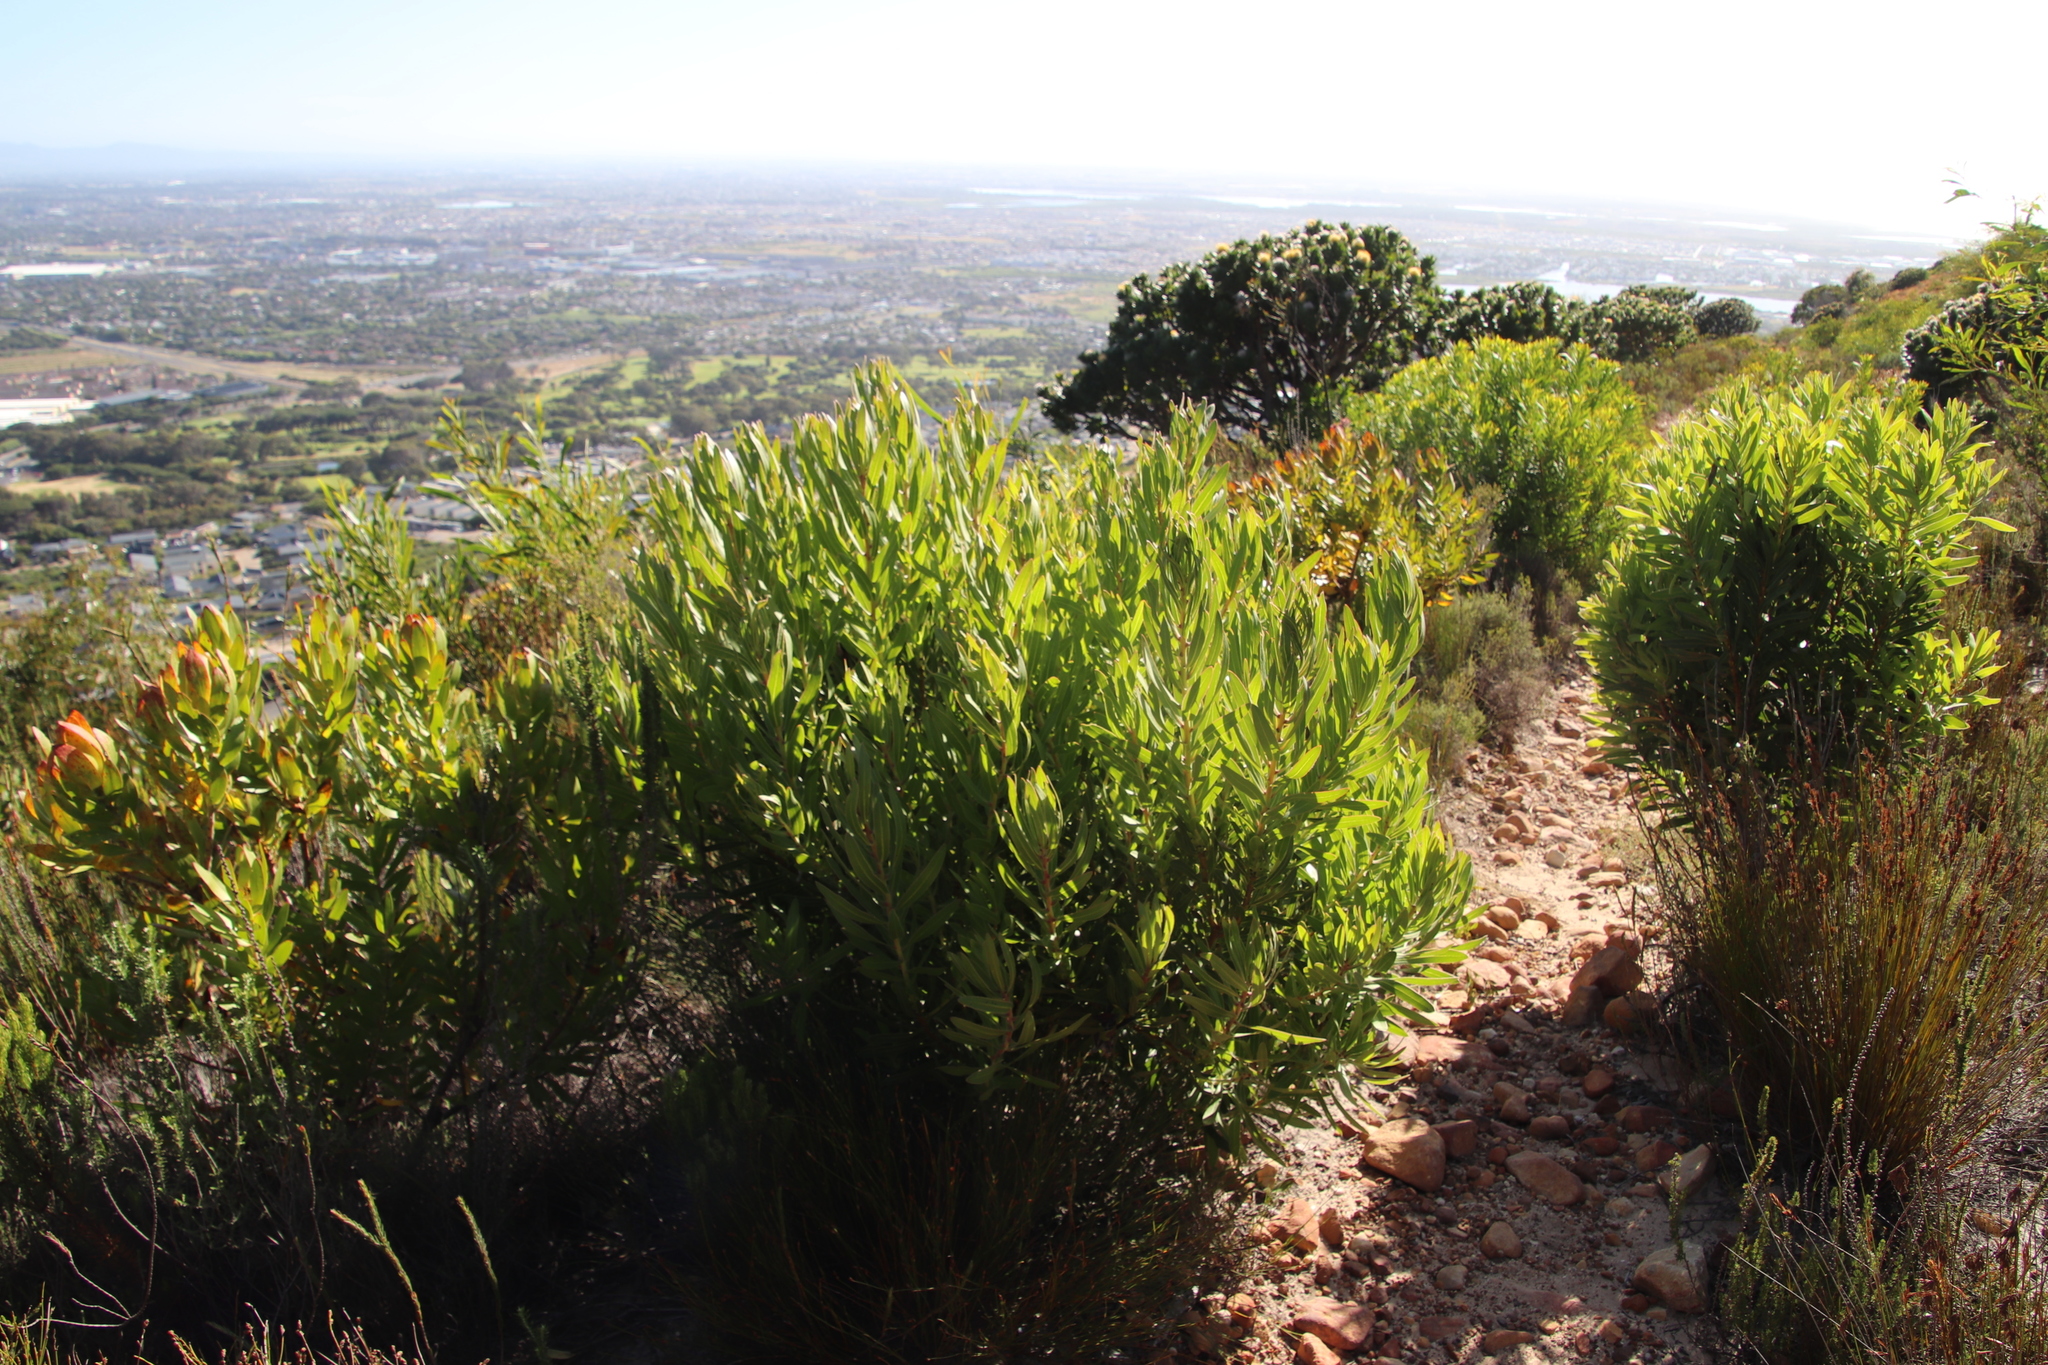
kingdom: Plantae
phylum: Tracheophyta
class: Magnoliopsida
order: Proteales
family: Proteaceae
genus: Leucadendron
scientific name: Leucadendron laureolum
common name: Golden sunshinebush
